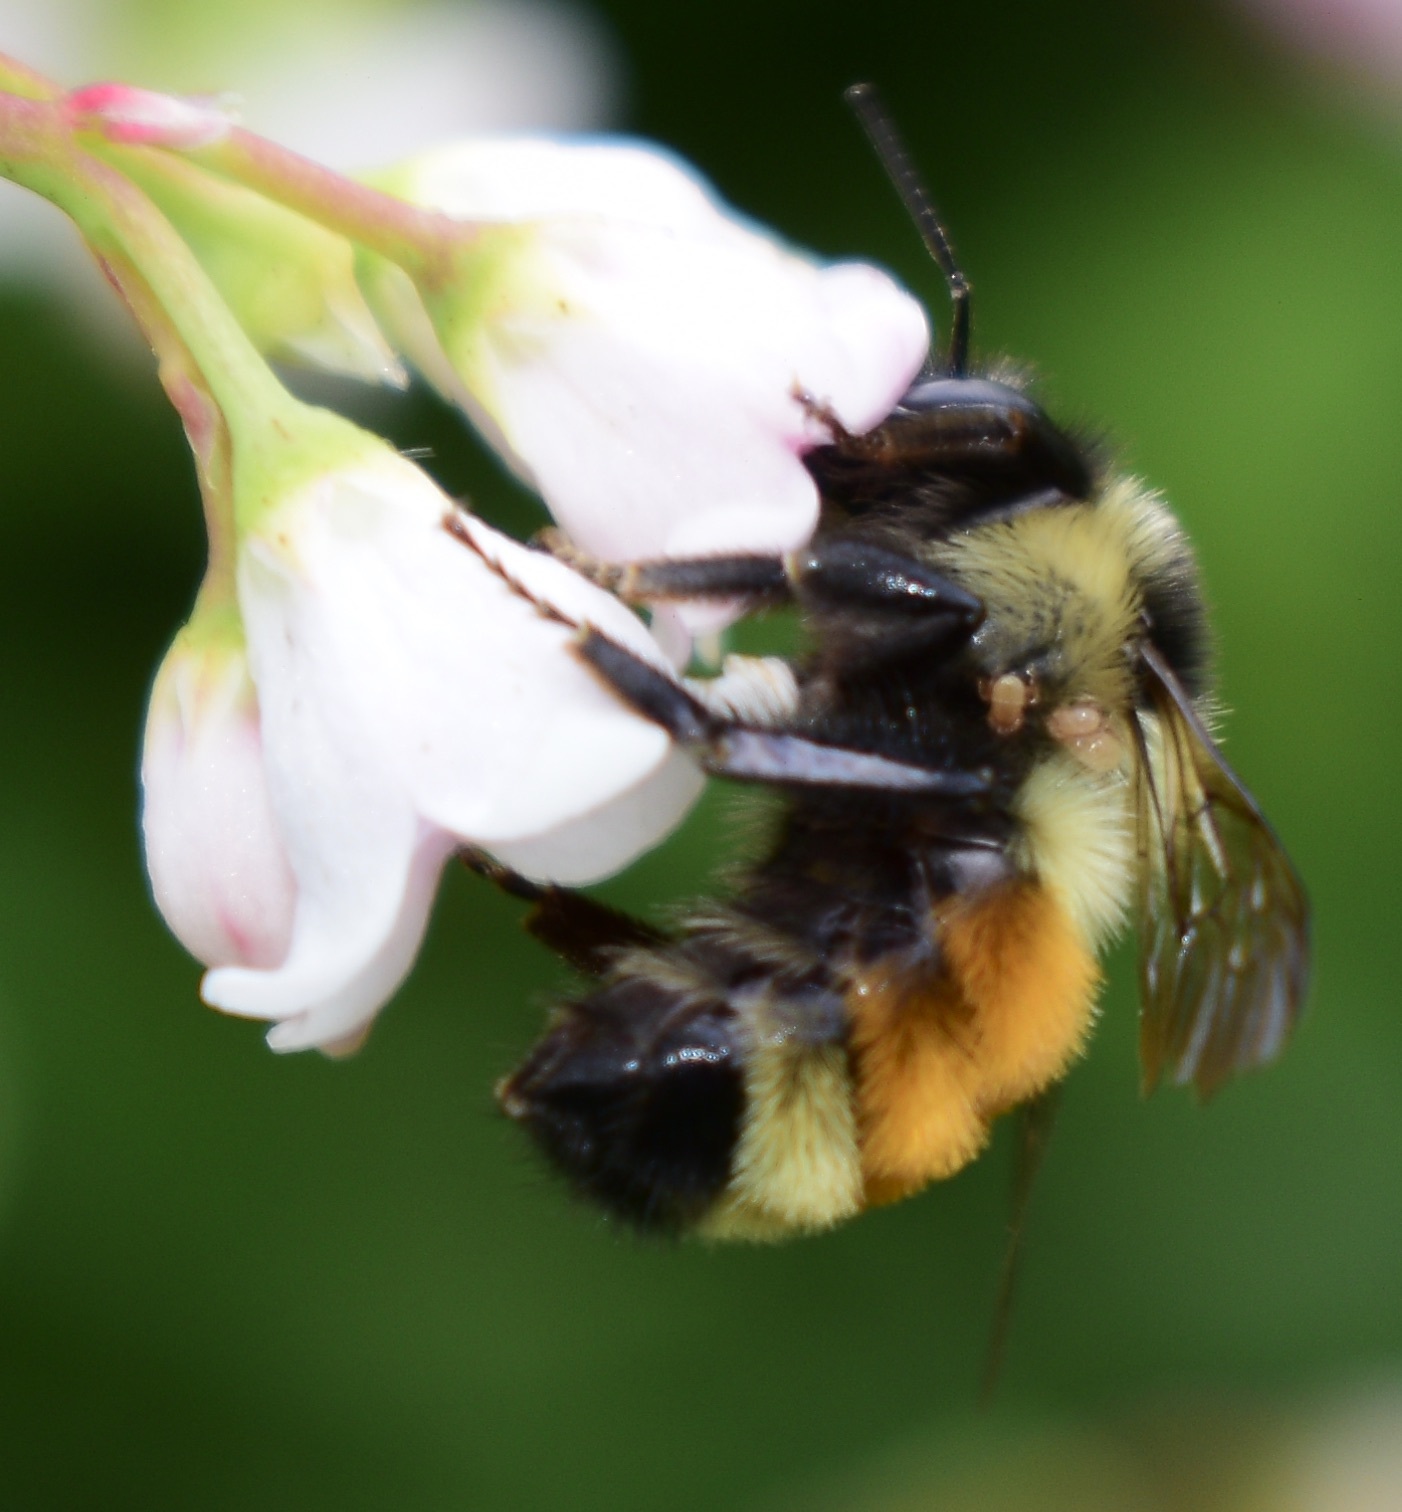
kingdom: Animalia
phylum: Arthropoda
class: Insecta
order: Hymenoptera
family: Apidae
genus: Bombus
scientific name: Bombus ternarius
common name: Tri-colored bumble bee
